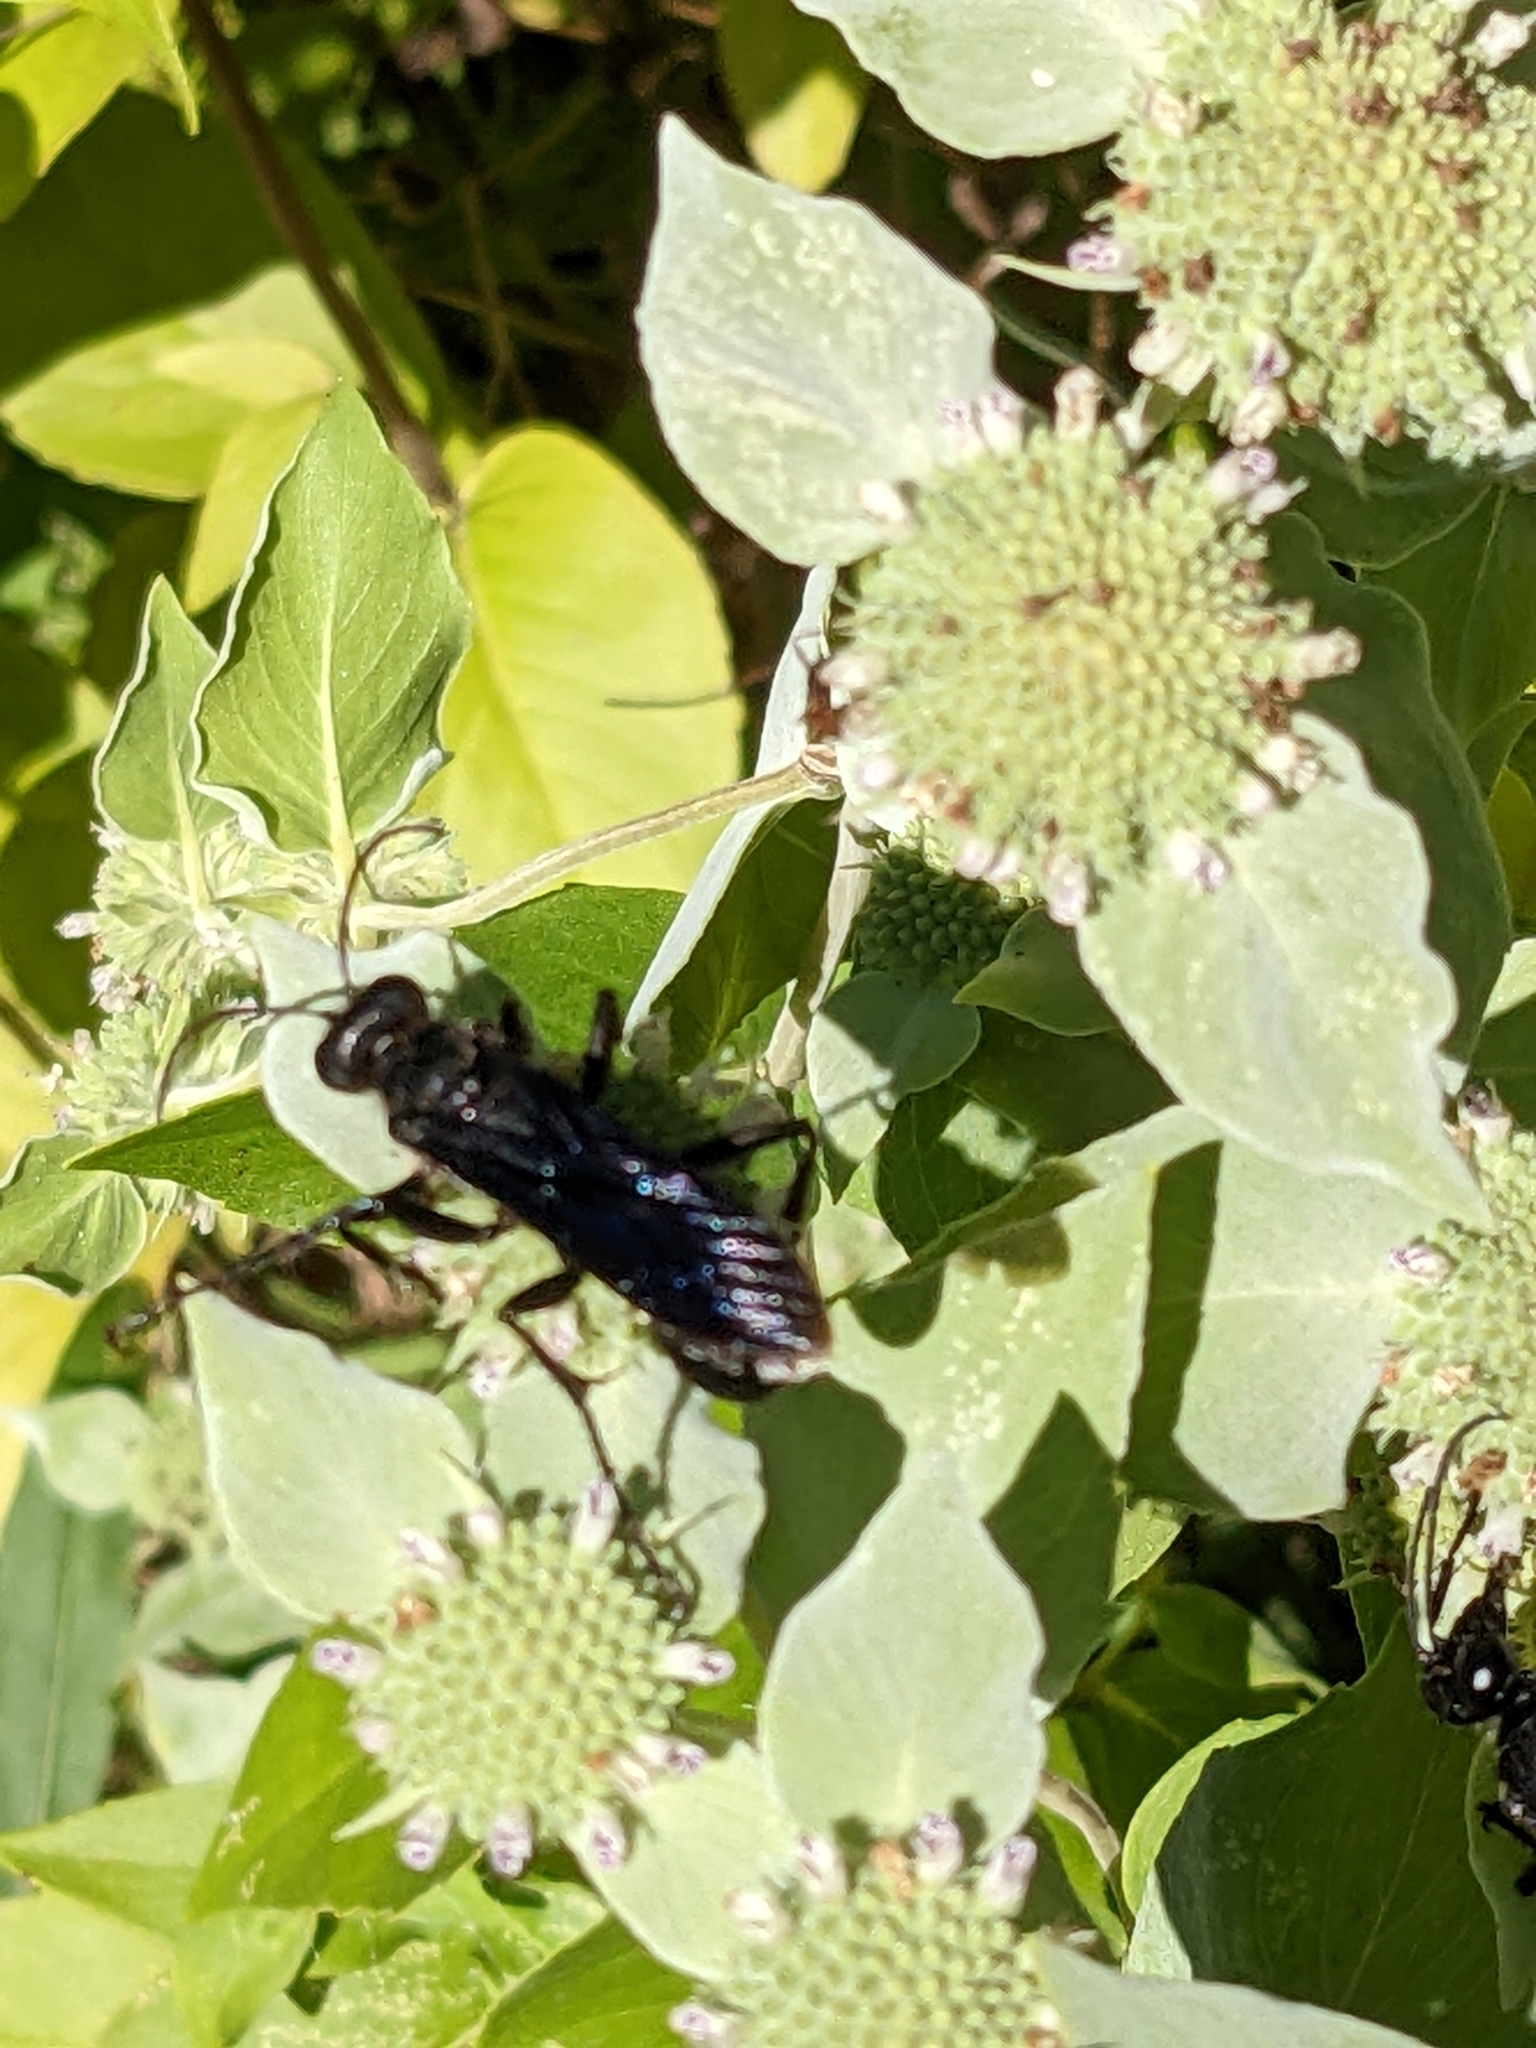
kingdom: Animalia
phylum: Arthropoda
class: Insecta
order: Hymenoptera
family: Sphecidae
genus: Sphex
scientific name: Sphex pensylvanicus
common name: Great black digger wasp
